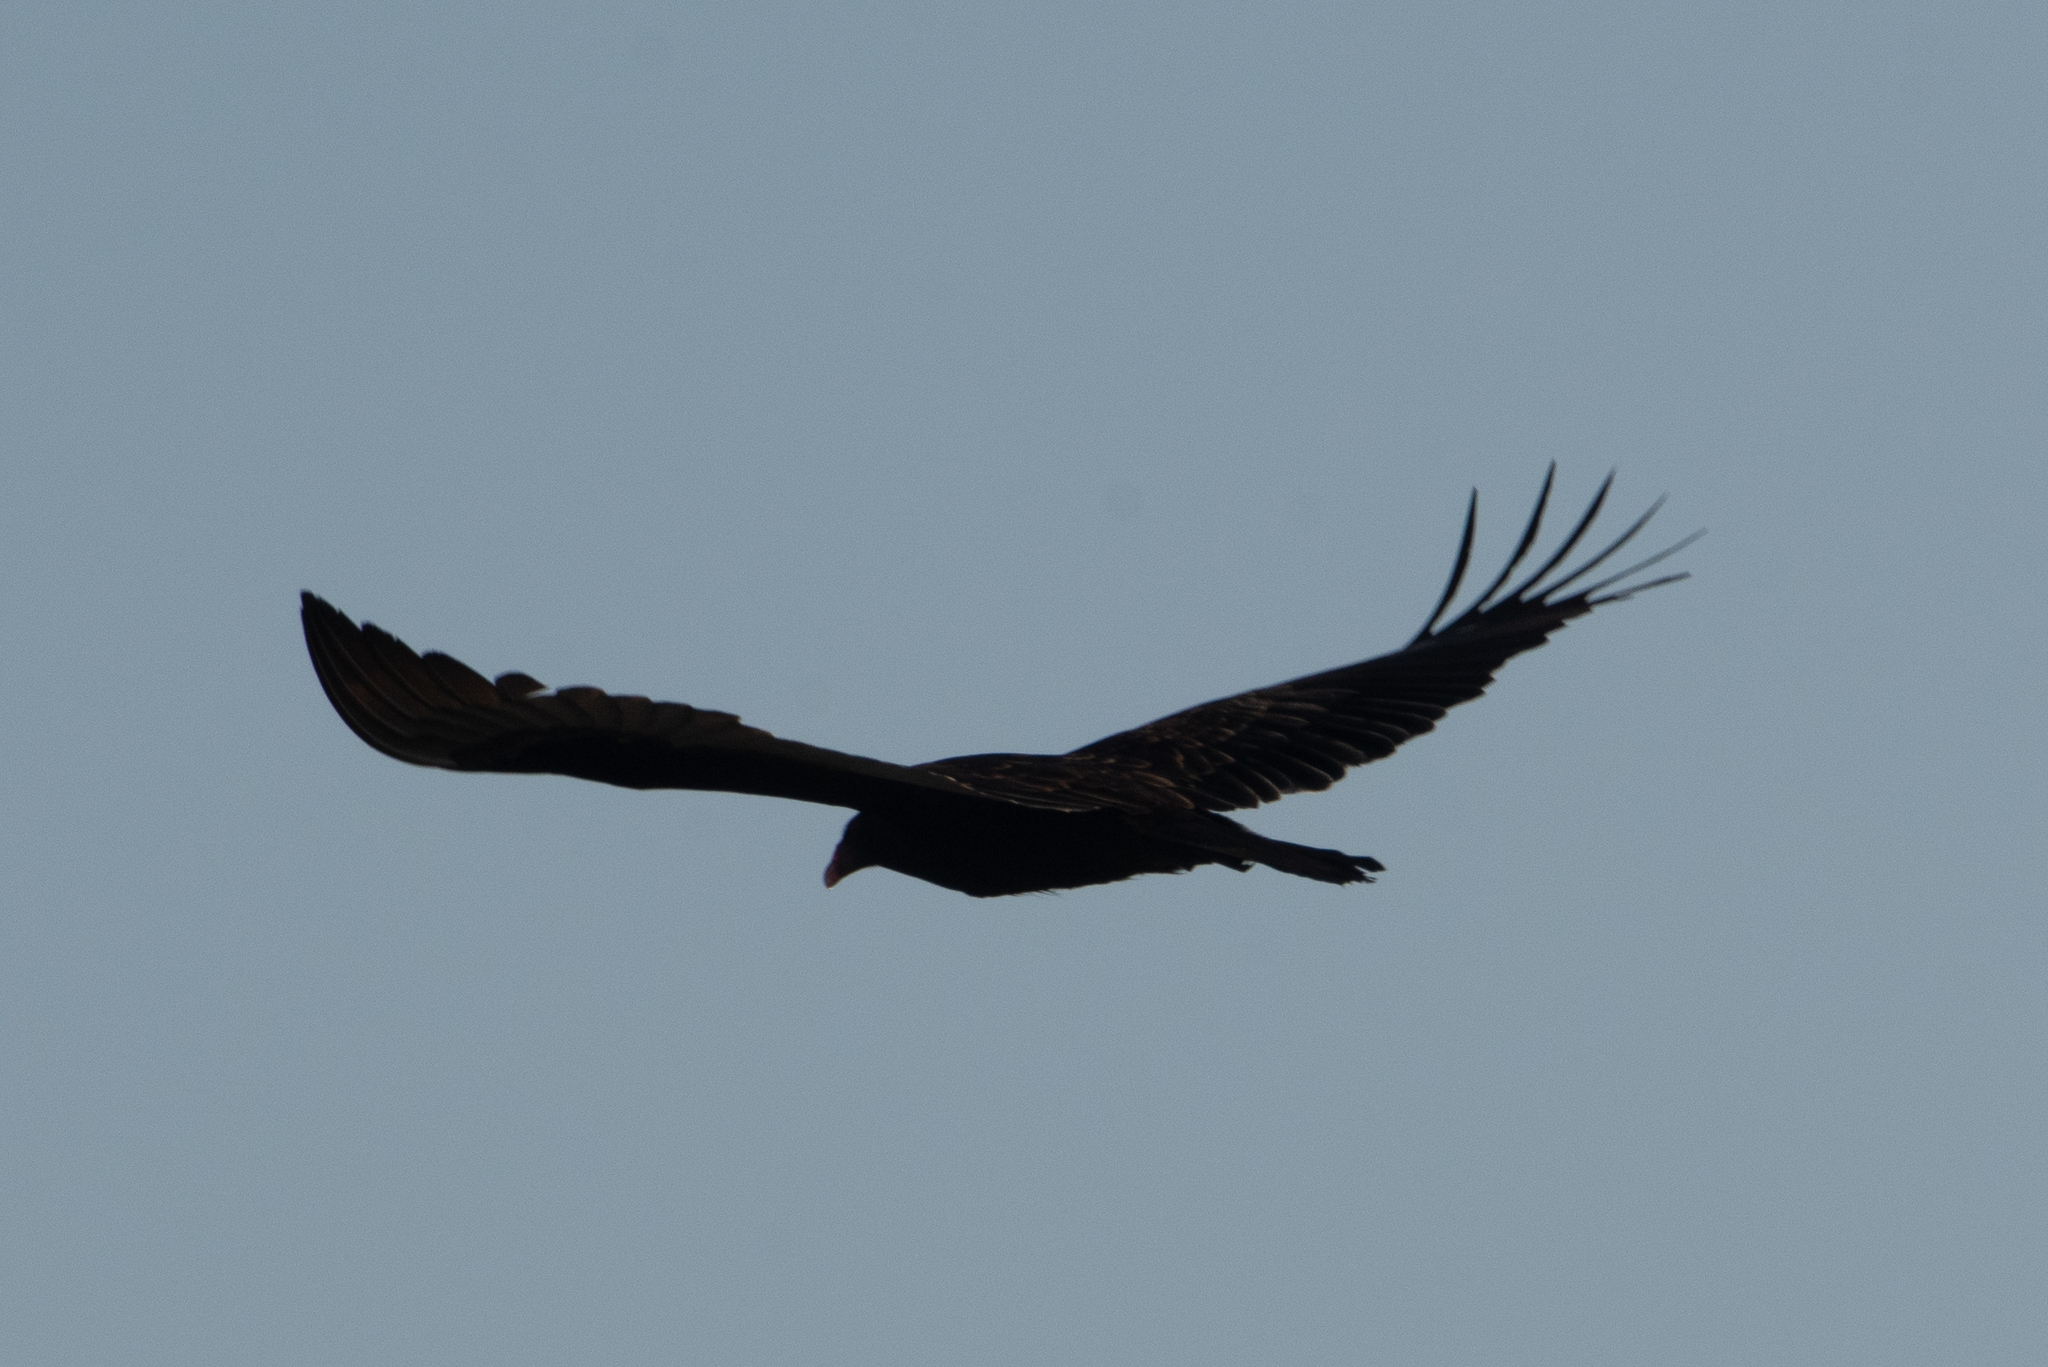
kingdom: Animalia
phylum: Chordata
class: Aves
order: Accipitriformes
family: Cathartidae
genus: Cathartes
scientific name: Cathartes aura
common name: Turkey vulture
